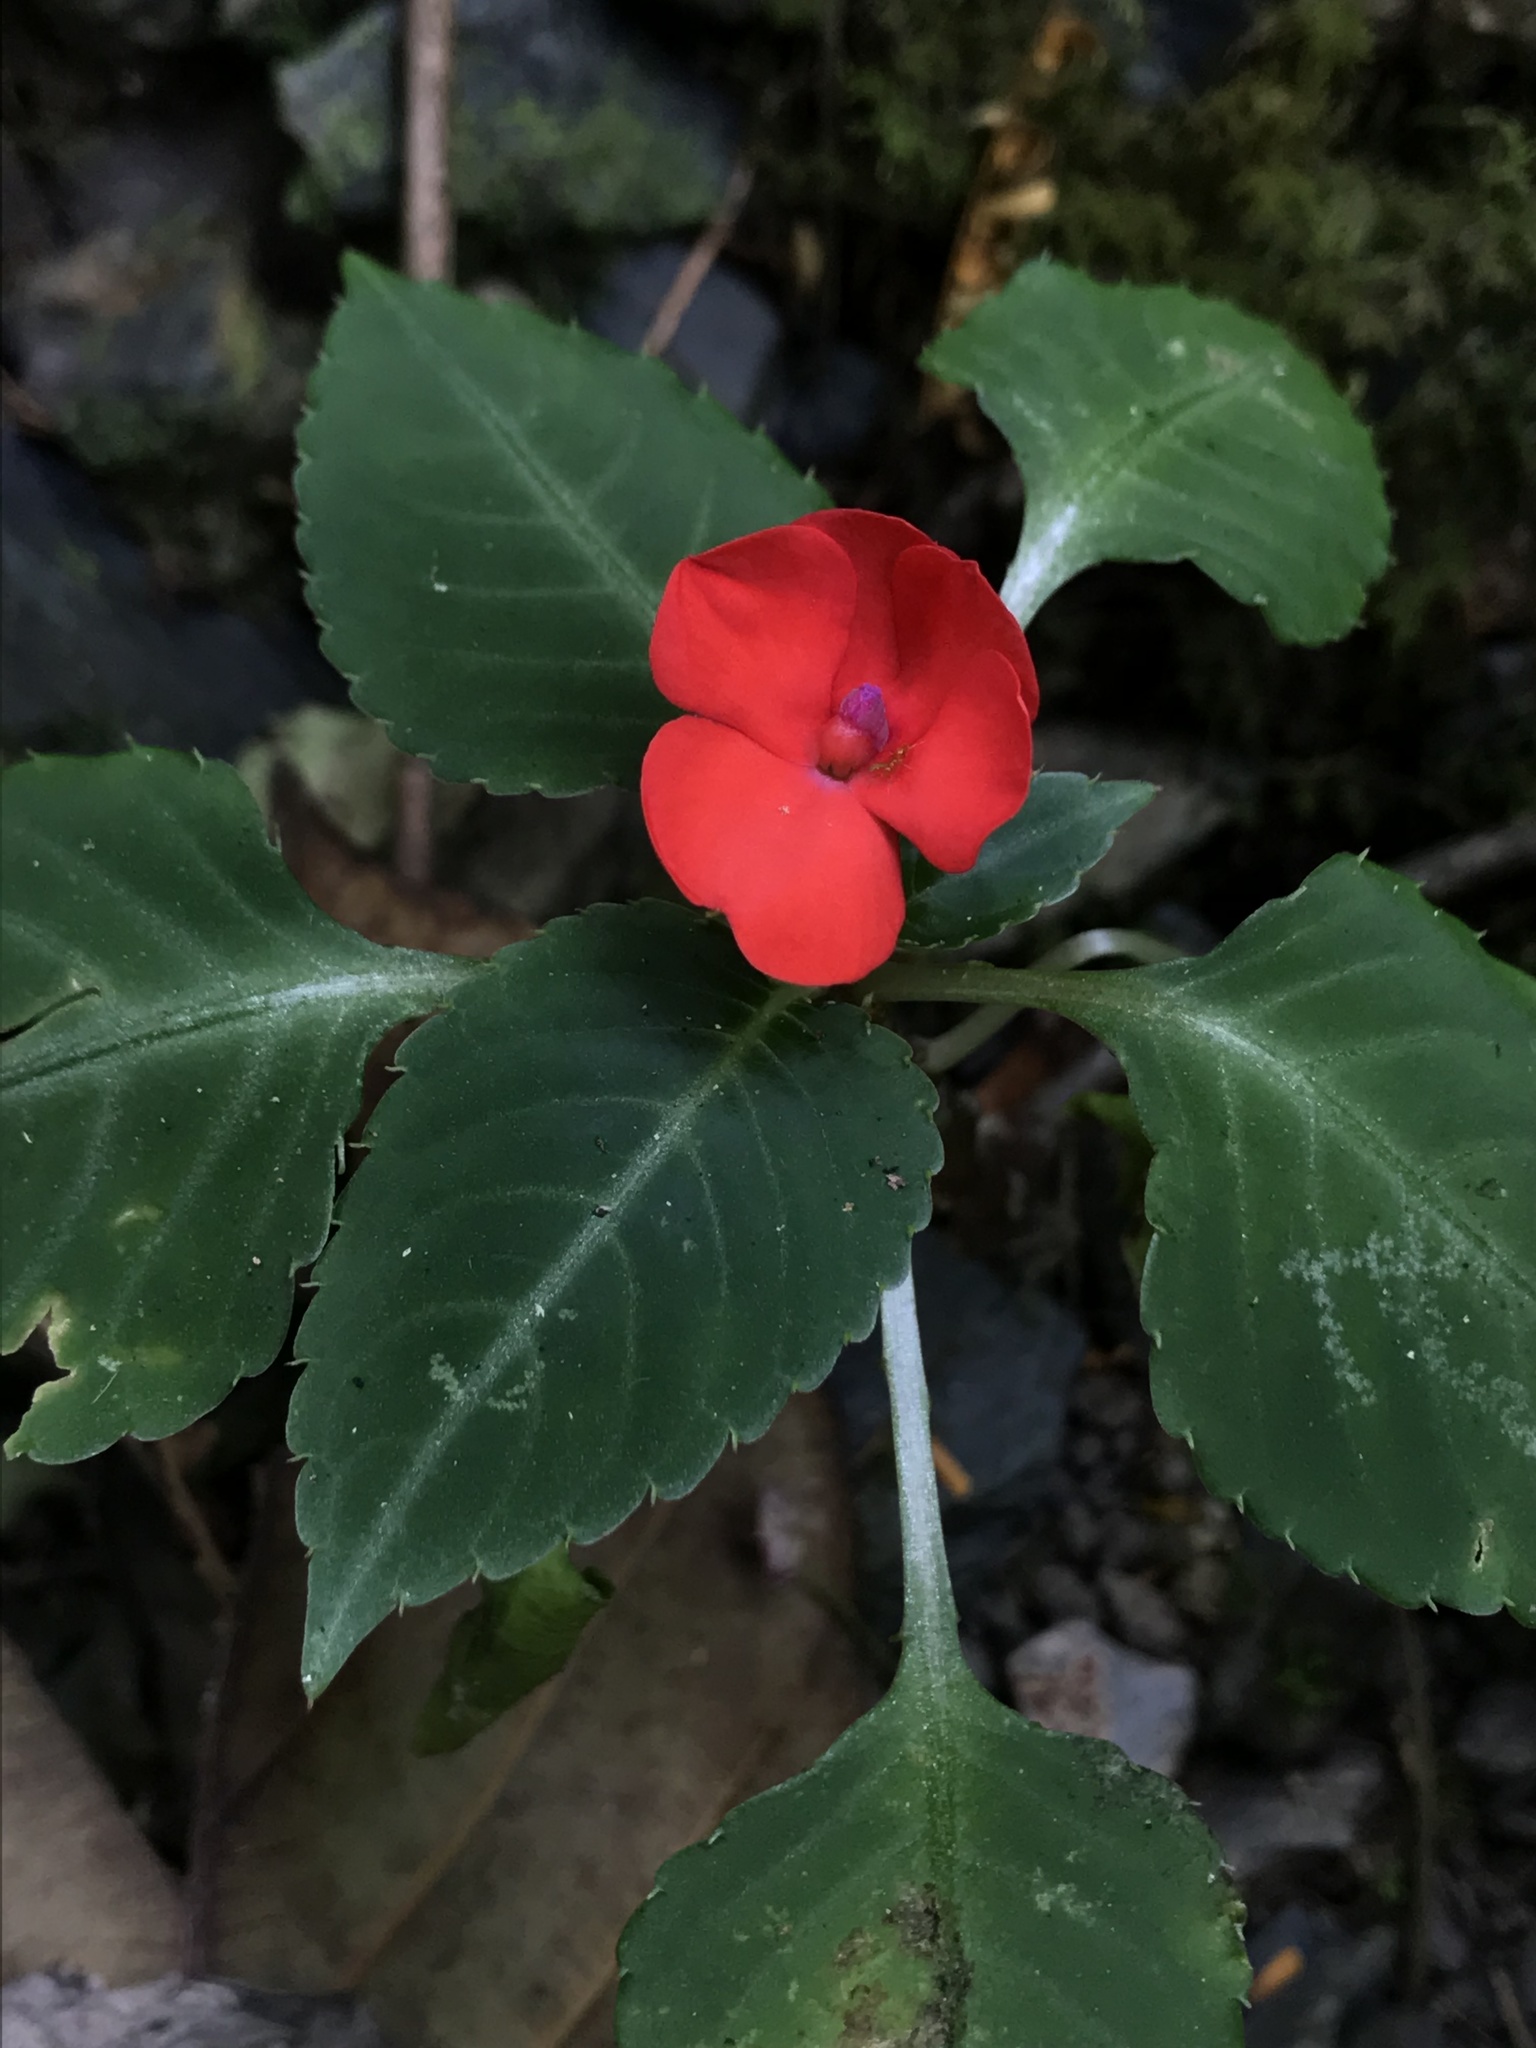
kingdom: Plantae
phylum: Tracheophyta
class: Magnoliopsida
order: Ericales
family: Balsaminaceae
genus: Impatiens
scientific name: Impatiens walleriana
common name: Buzzy lizzy
